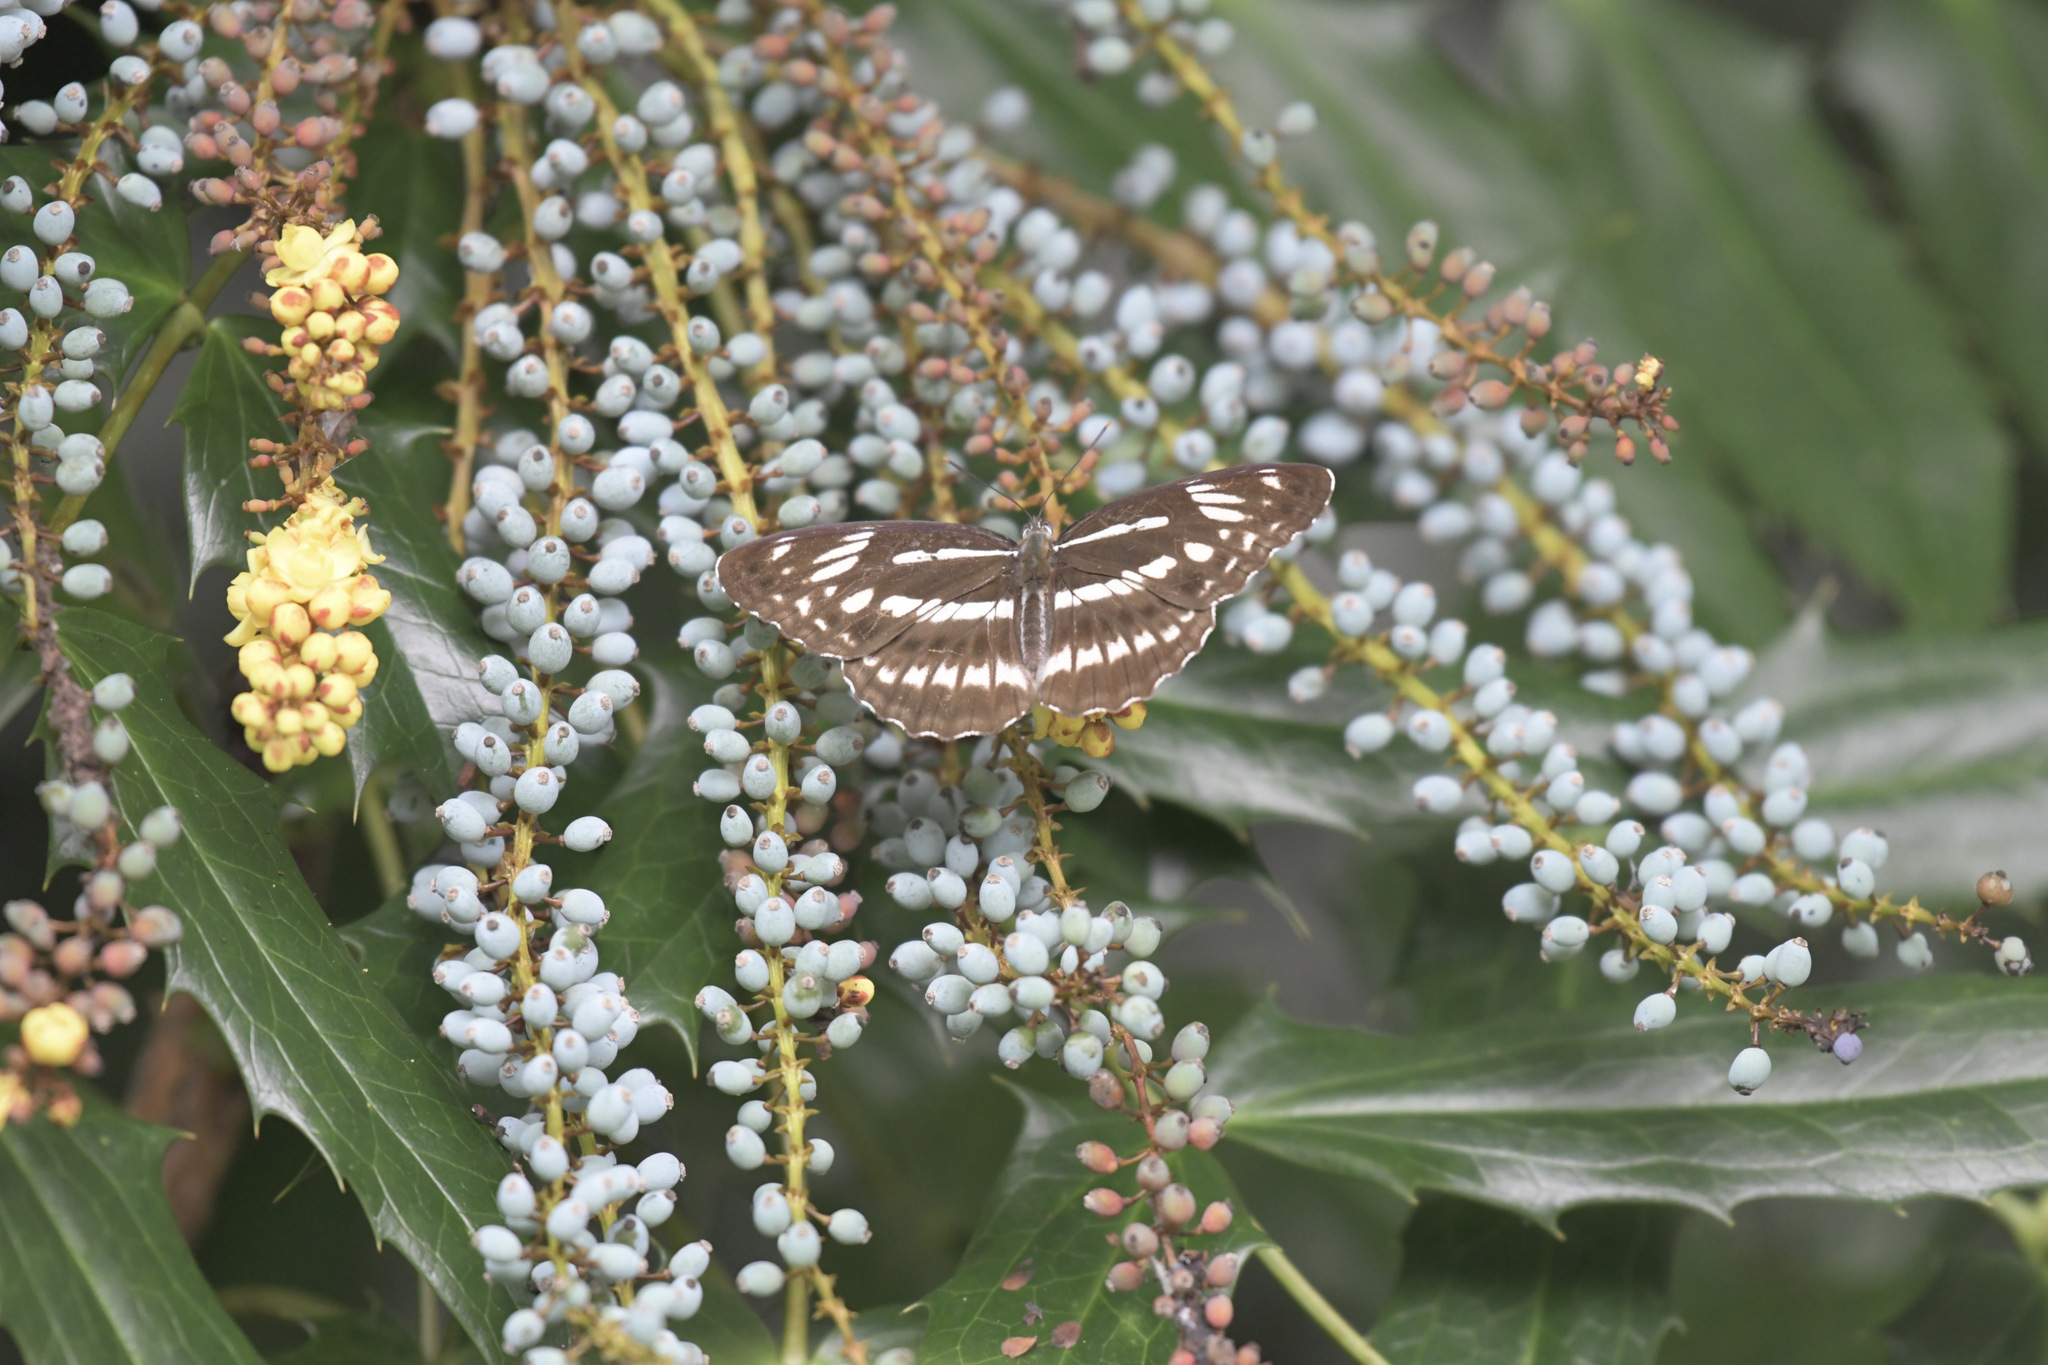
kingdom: Animalia
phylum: Arthropoda
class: Insecta
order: Lepidoptera
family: Nymphalidae
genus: Limenitis
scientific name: Limenitis sulpitia
